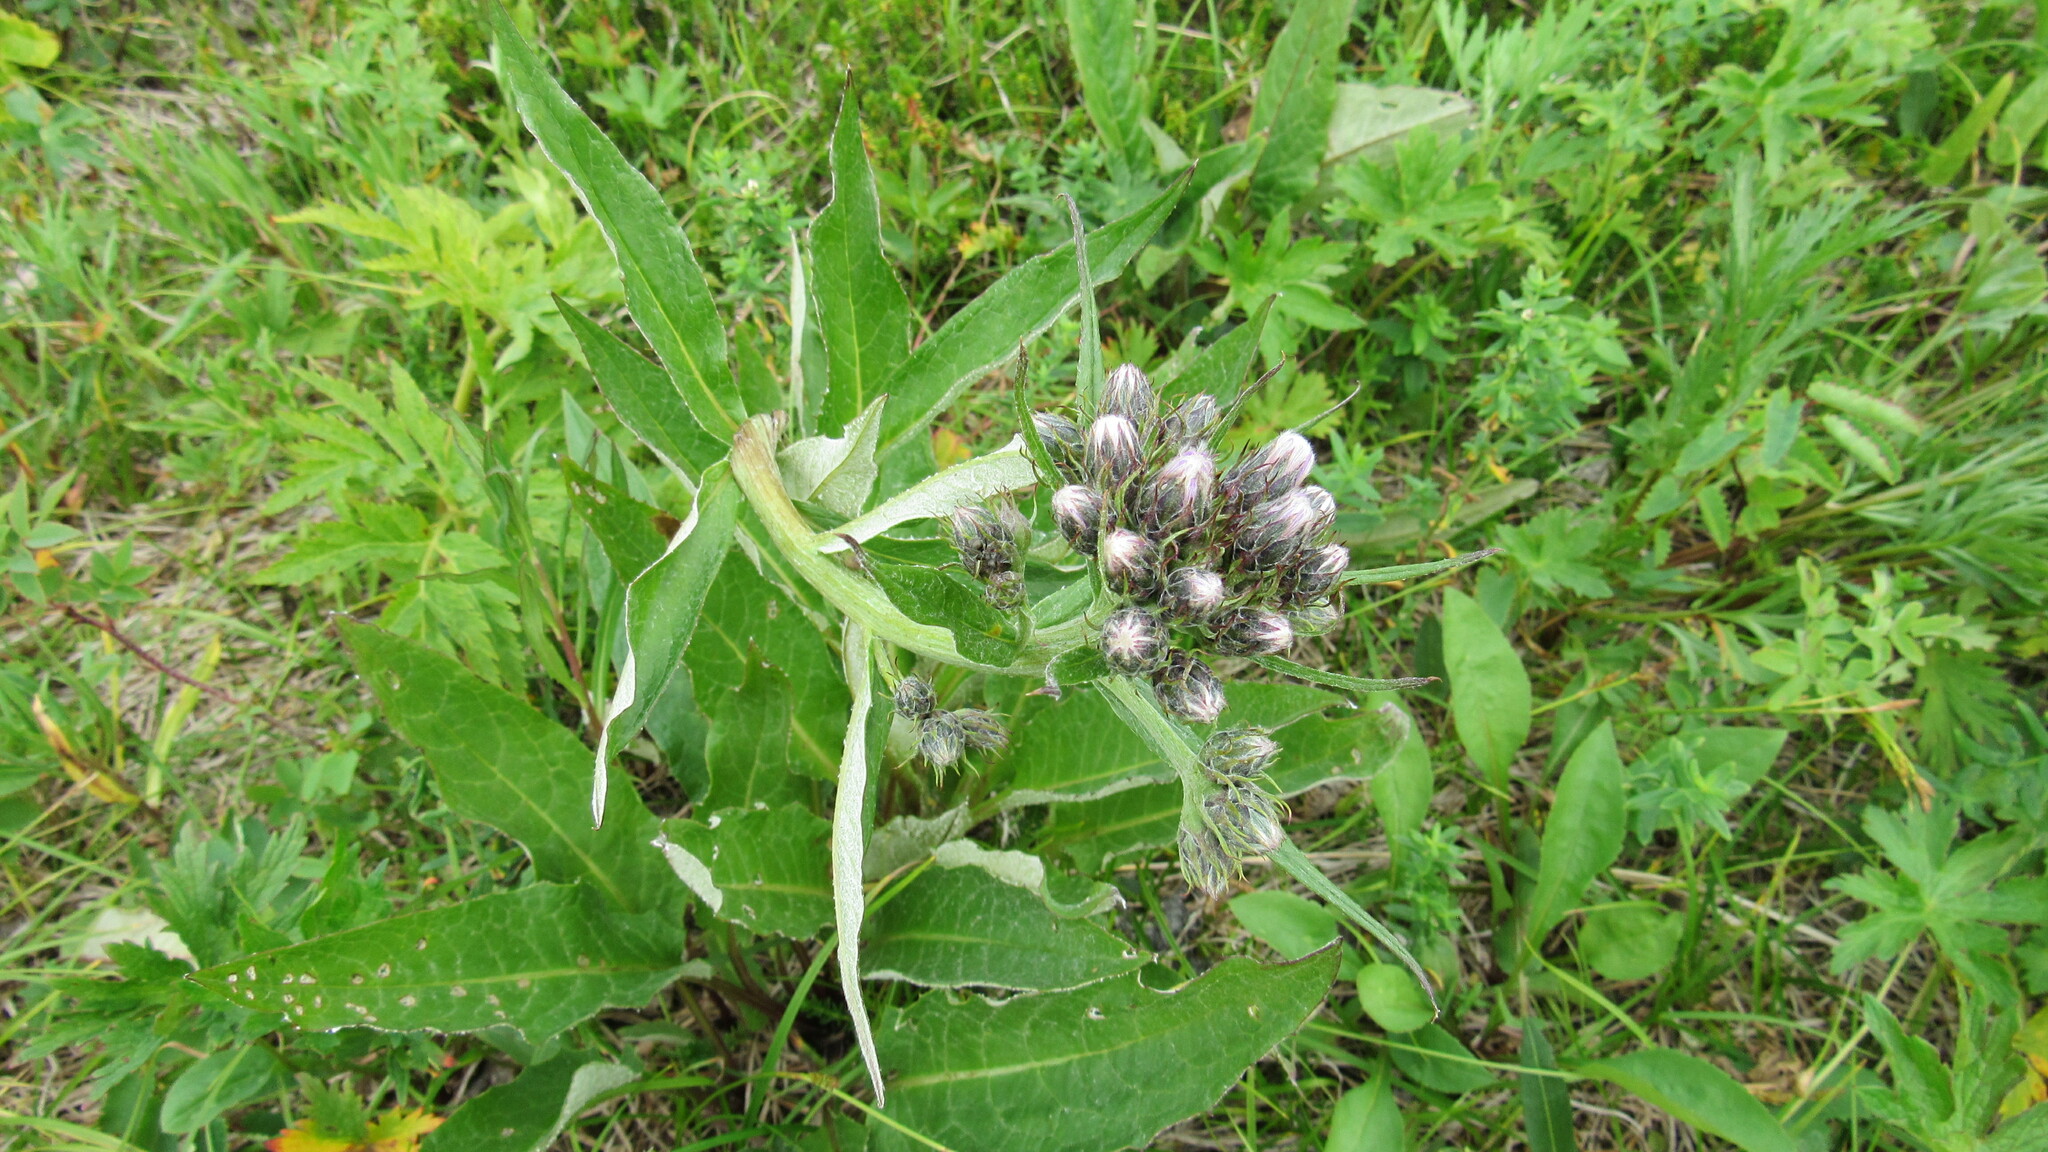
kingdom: Plantae
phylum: Tracheophyta
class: Magnoliopsida
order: Asterales
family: Asteraceae
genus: Saussurea
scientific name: Saussurea pseudotilesii
